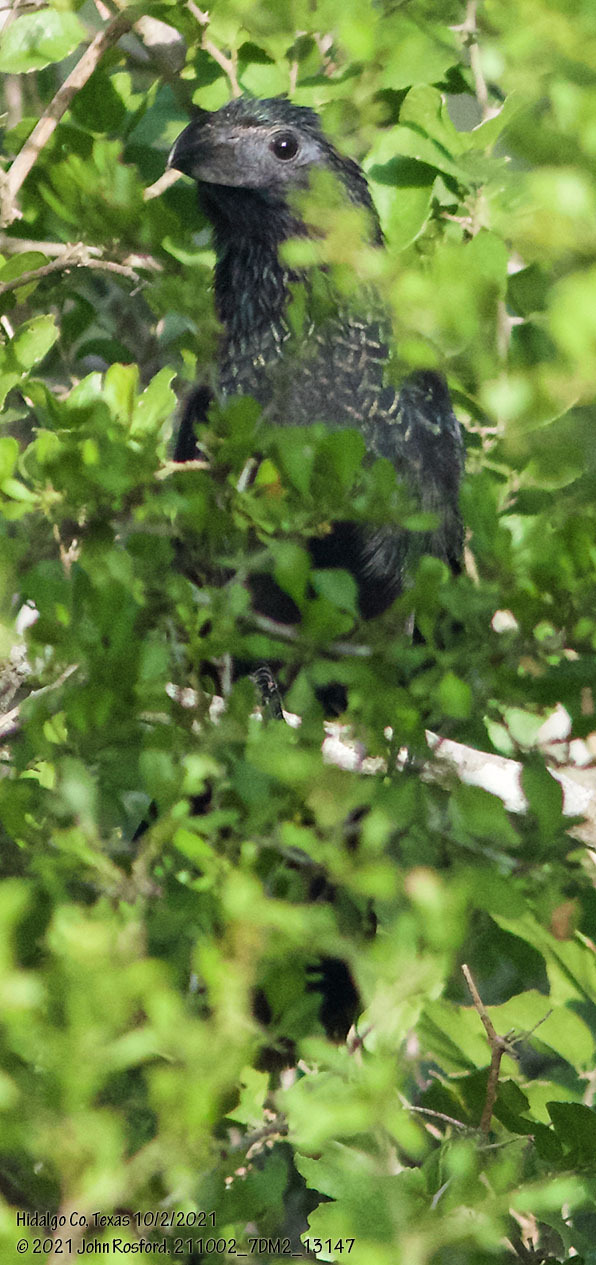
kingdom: Animalia
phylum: Chordata
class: Aves
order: Cuculiformes
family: Cuculidae
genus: Crotophaga
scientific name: Crotophaga sulcirostris
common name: Groove-billed ani
